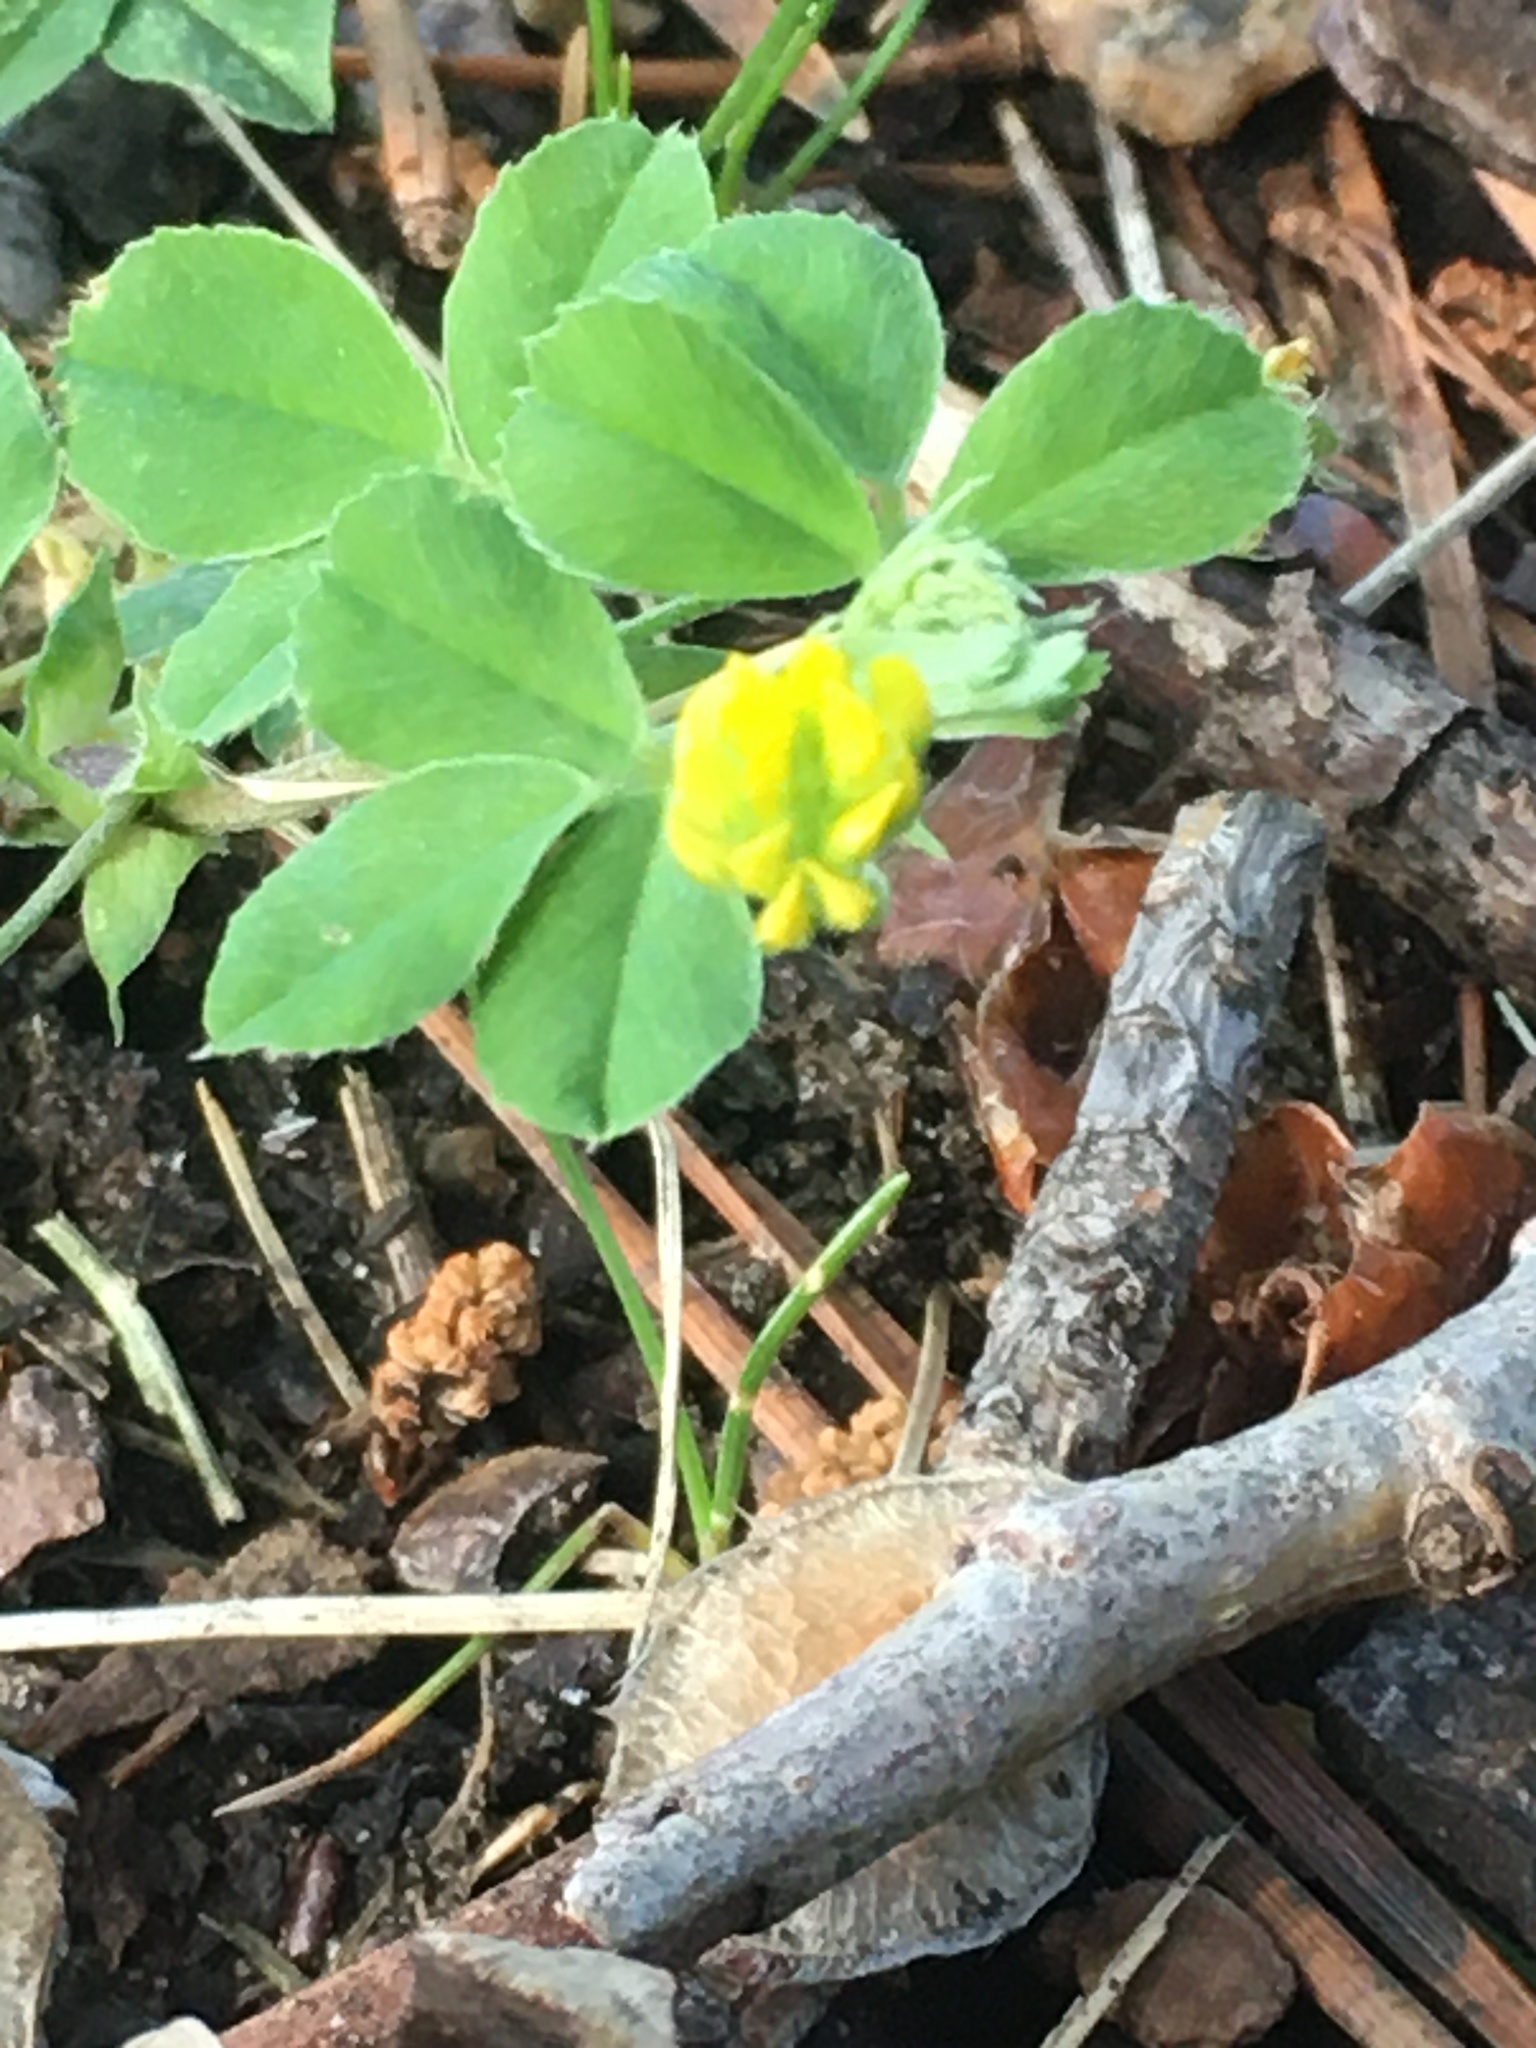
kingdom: Plantae
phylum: Tracheophyta
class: Magnoliopsida
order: Fabales
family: Fabaceae
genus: Medicago
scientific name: Medicago lupulina
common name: Black medick
